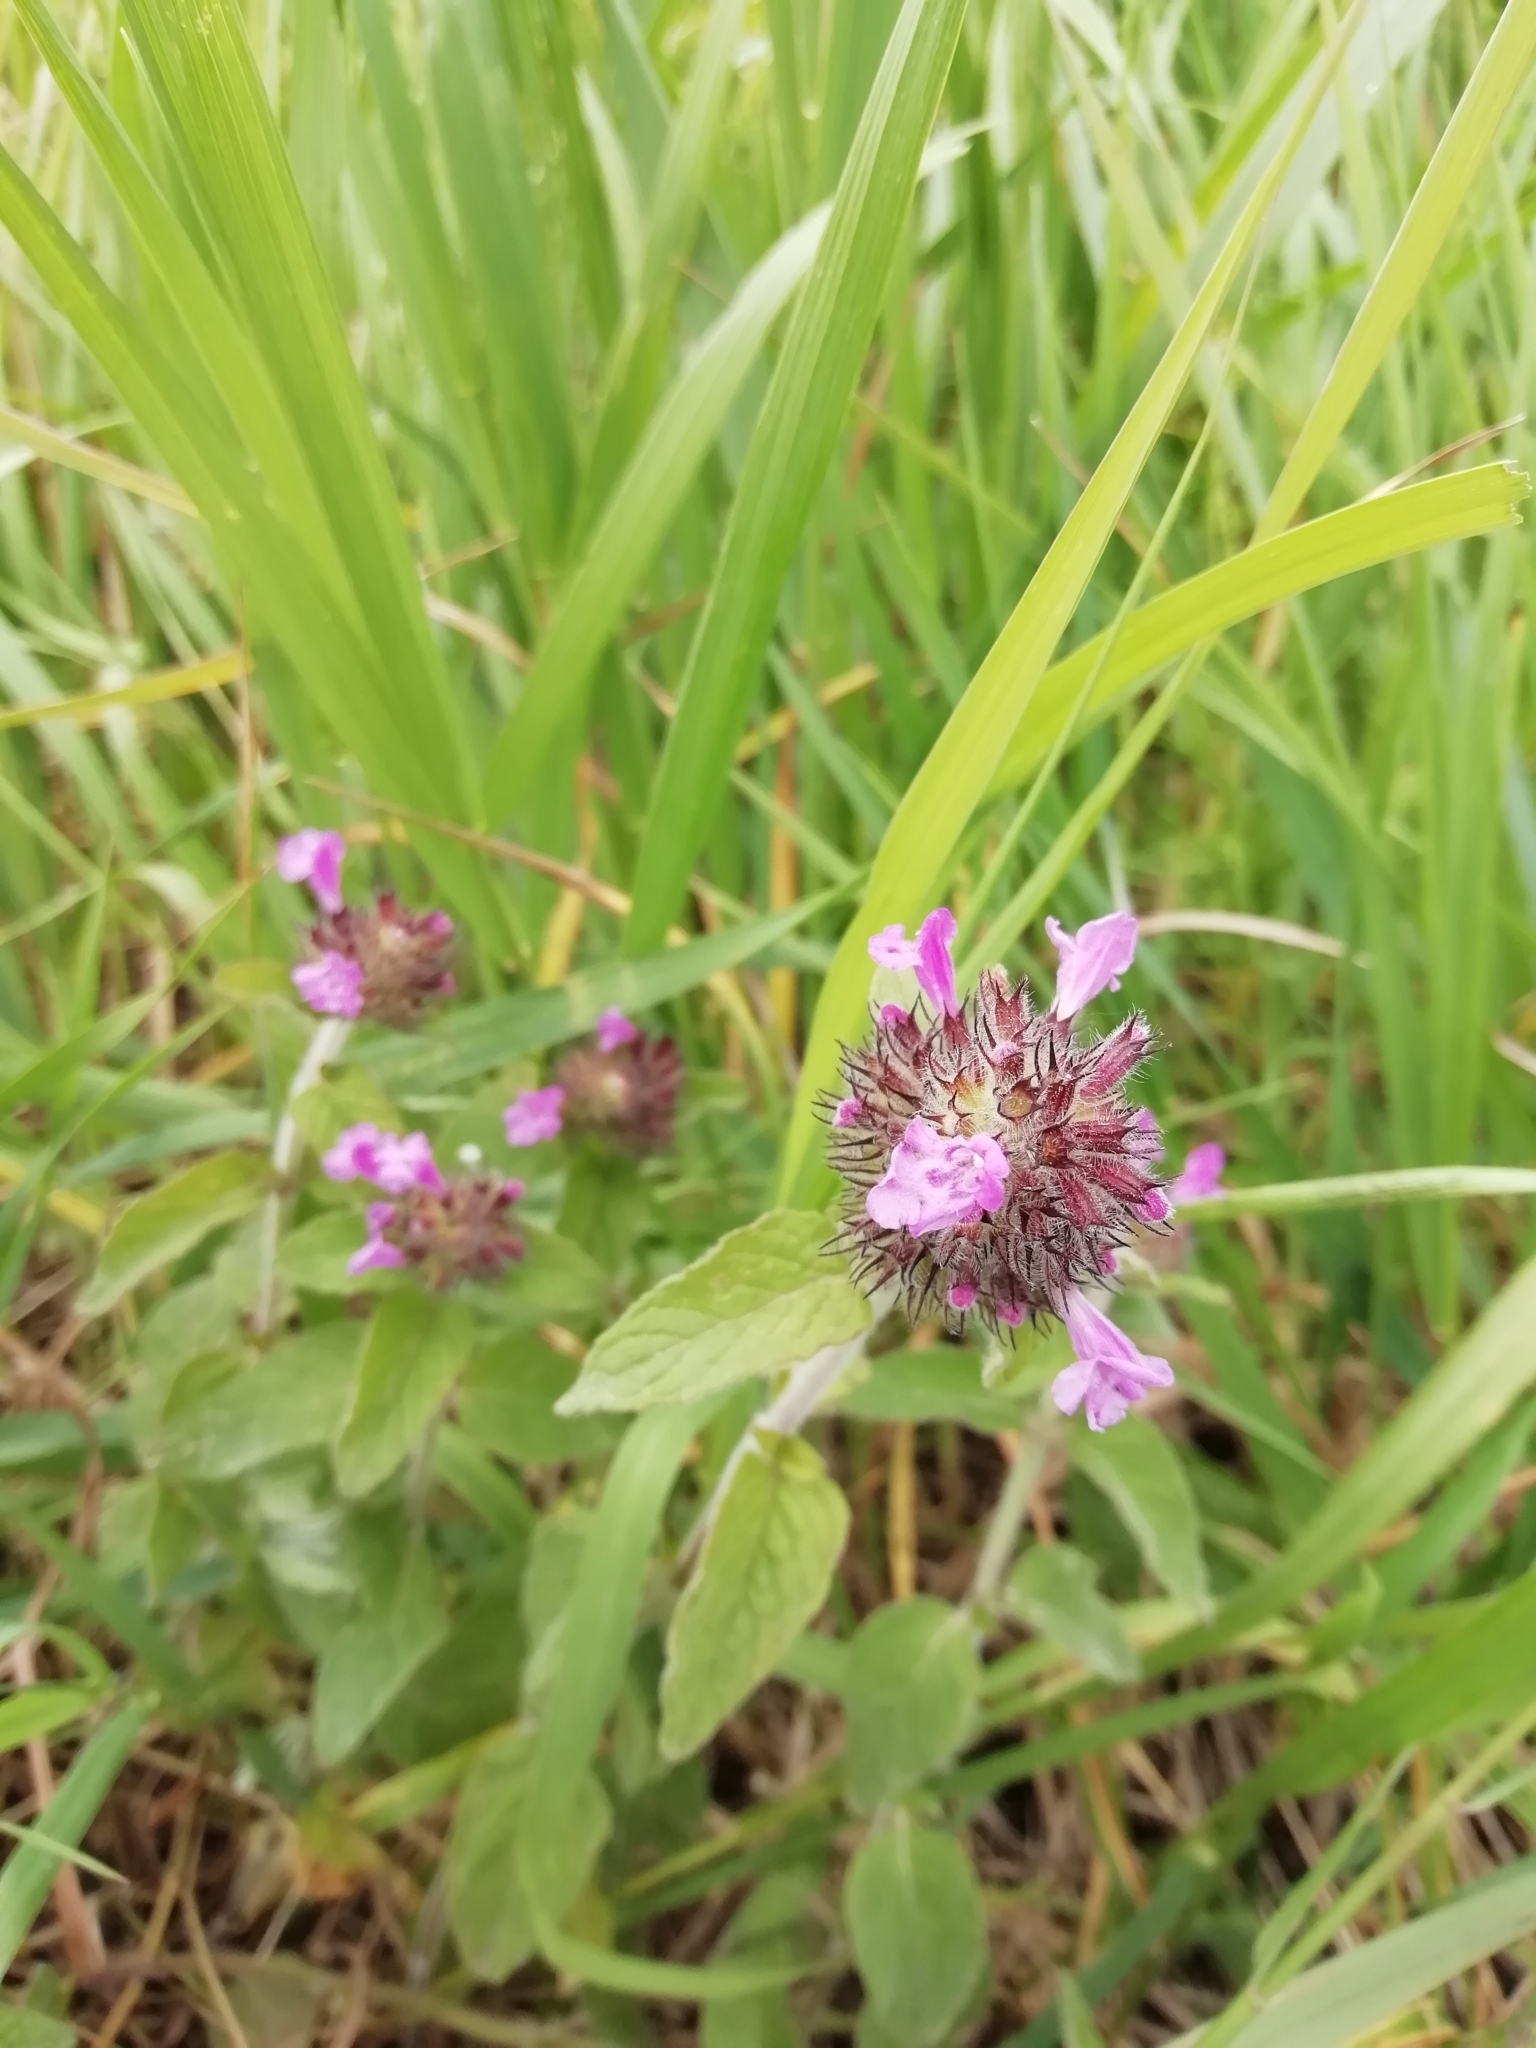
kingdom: Plantae
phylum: Tracheophyta
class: Magnoliopsida
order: Lamiales
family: Lamiaceae
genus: Clinopodium
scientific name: Clinopodium vulgare
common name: Wild basil
